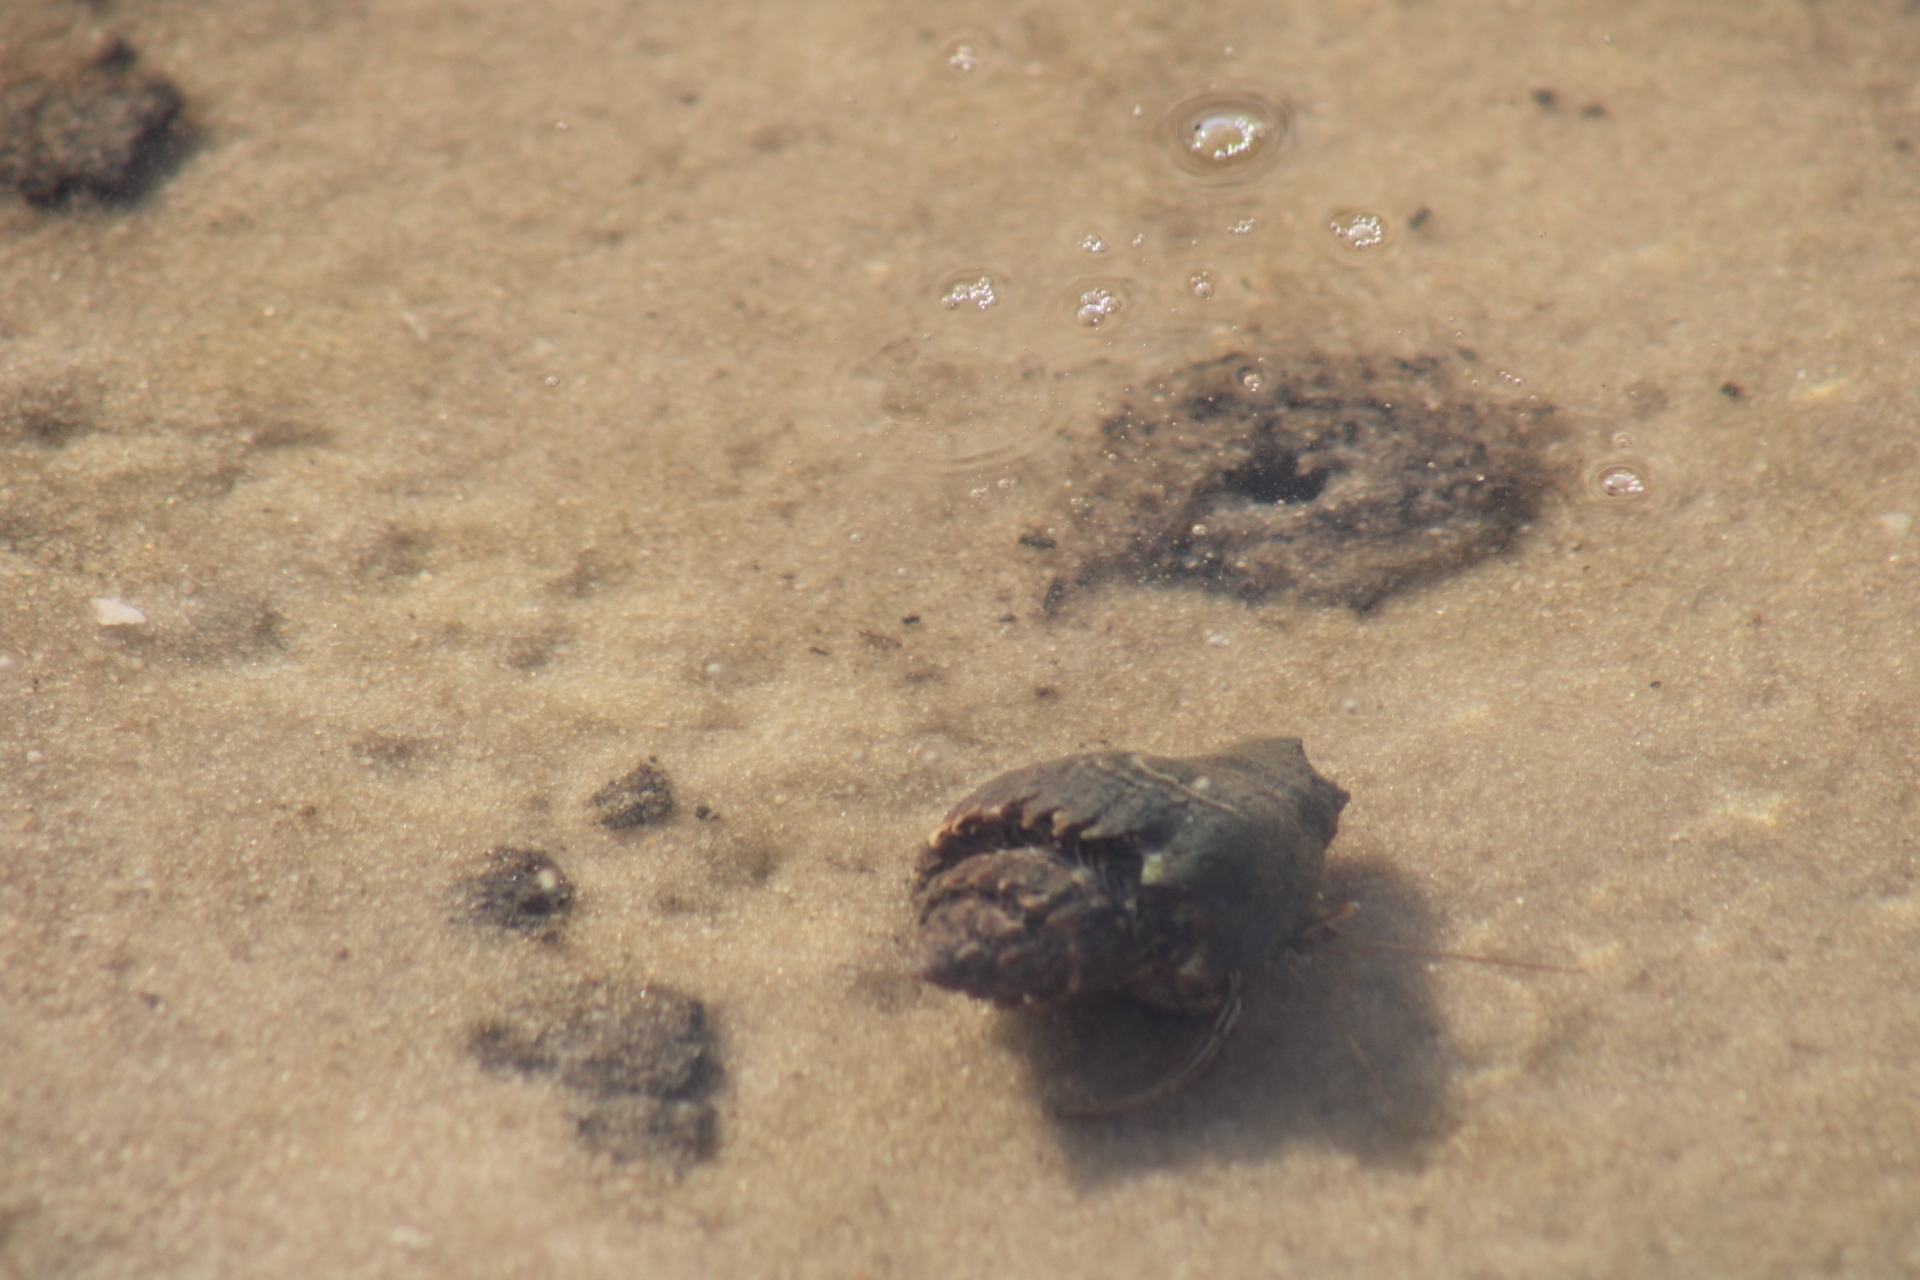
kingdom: Animalia
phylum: Arthropoda
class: Malacostraca
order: Decapoda
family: Diogenidae
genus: Clibanarius
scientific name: Clibanarius vittatus
